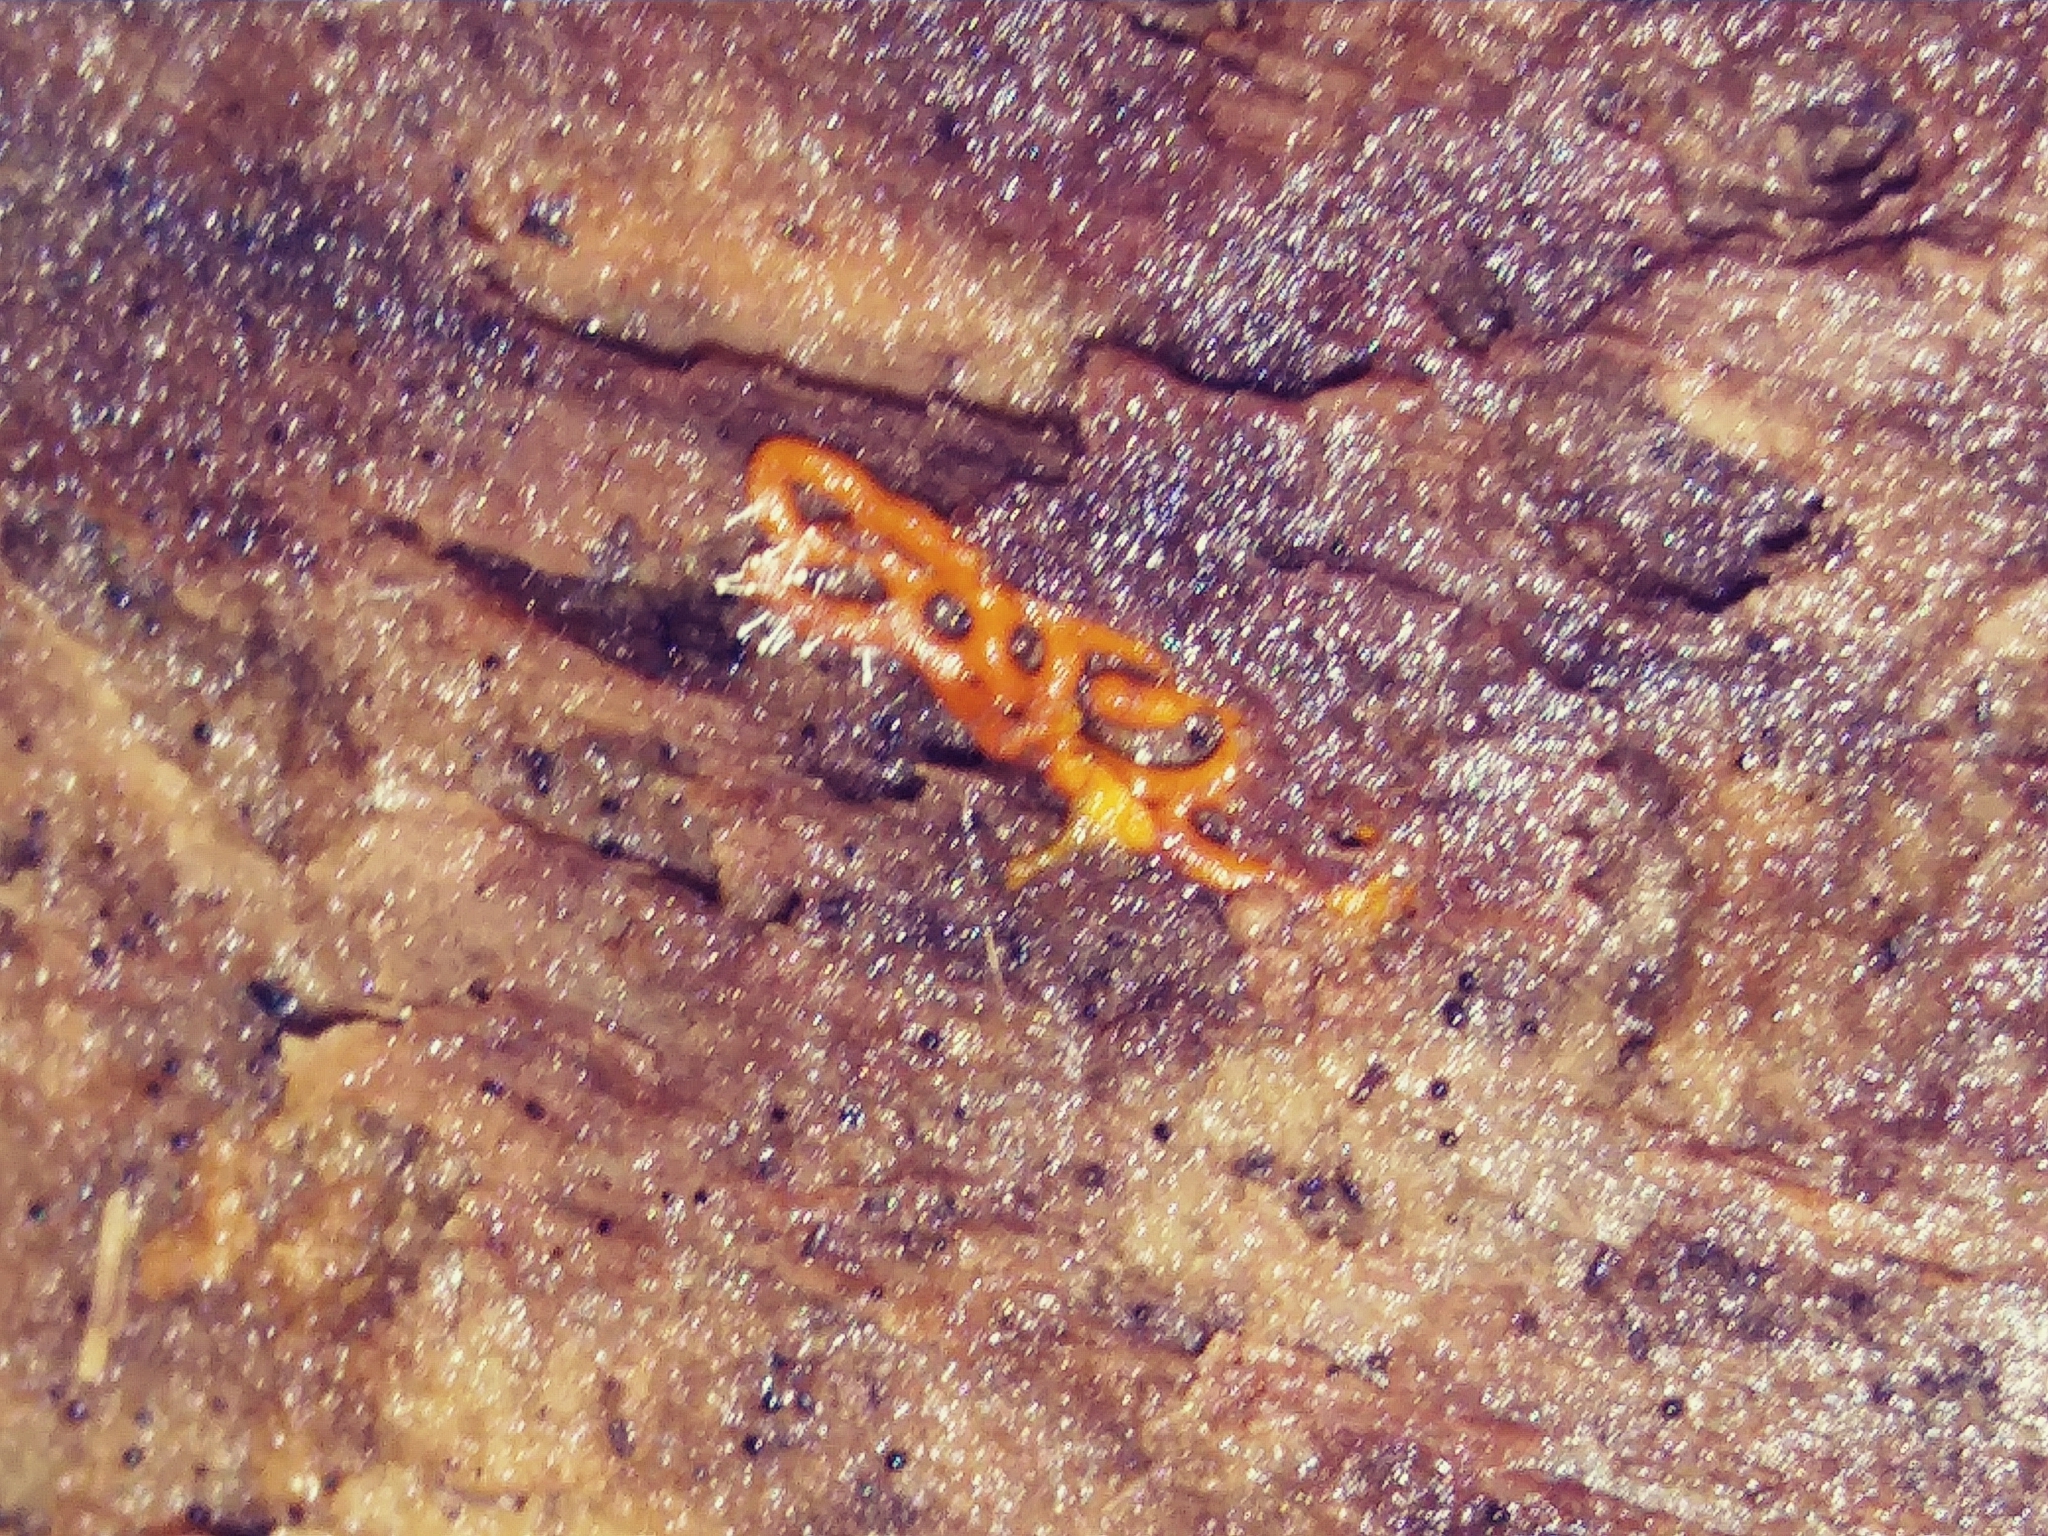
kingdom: Fungi
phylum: Ascomycota
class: Sordariomycetes
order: Hypocreales
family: Ophiocordycipitaceae
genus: Polycephalomyces
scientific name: Polycephalomyces tomentosus
